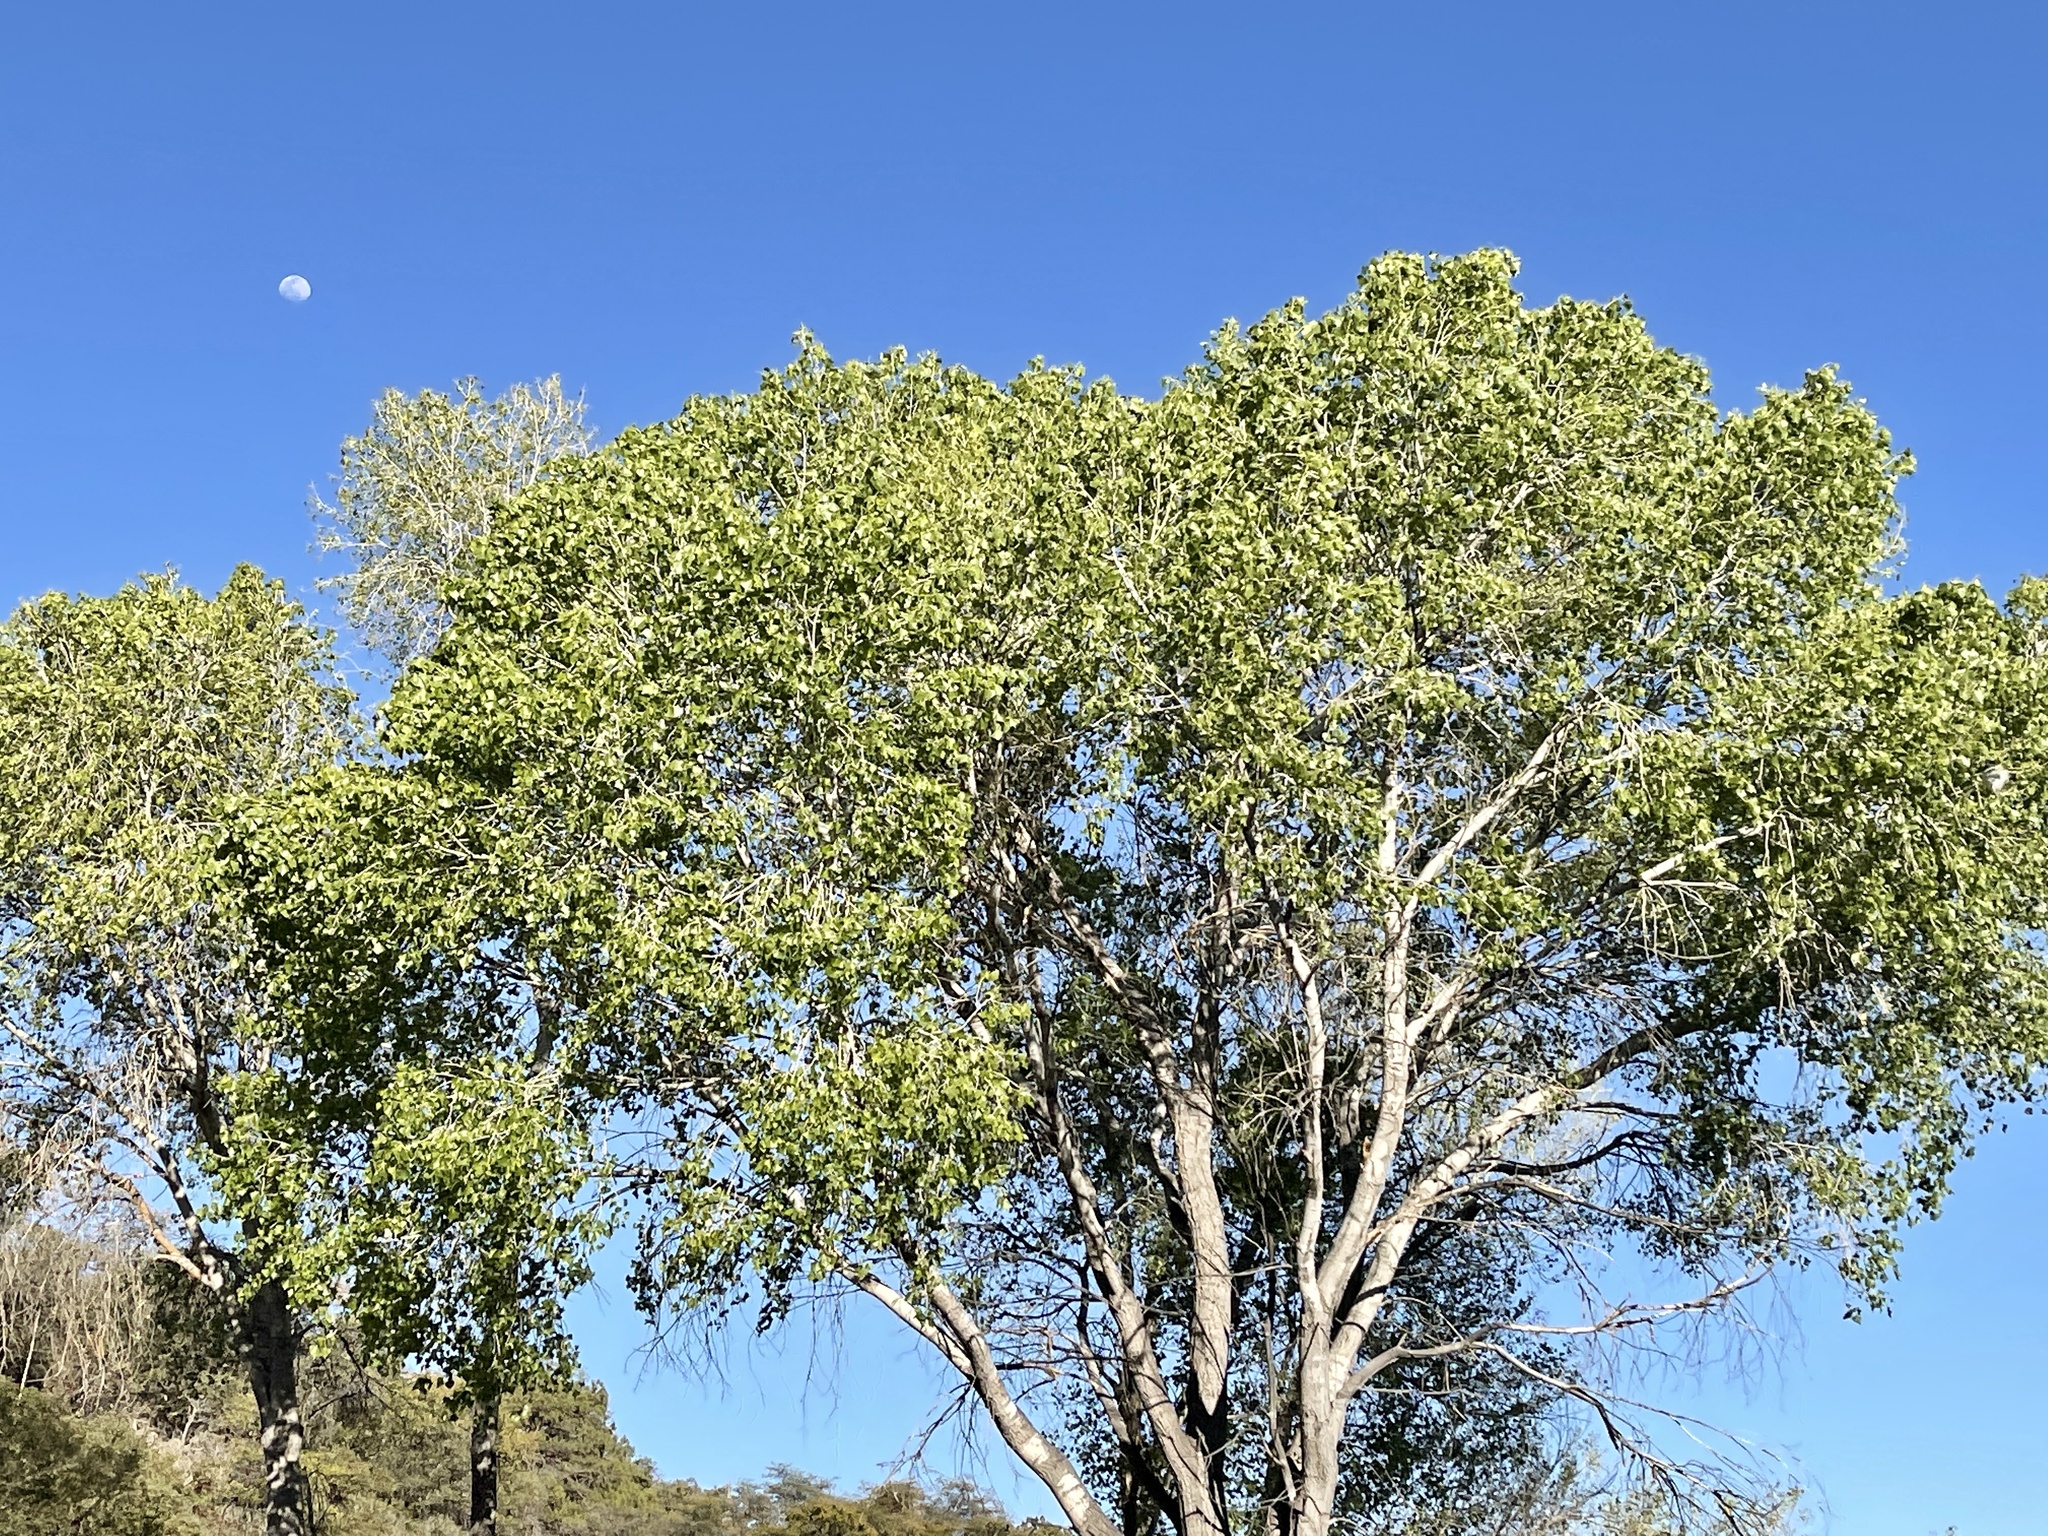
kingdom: Plantae
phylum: Tracheophyta
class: Magnoliopsida
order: Malpighiales
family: Salicaceae
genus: Populus
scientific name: Populus fremontii
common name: Fremont's cottonwood
